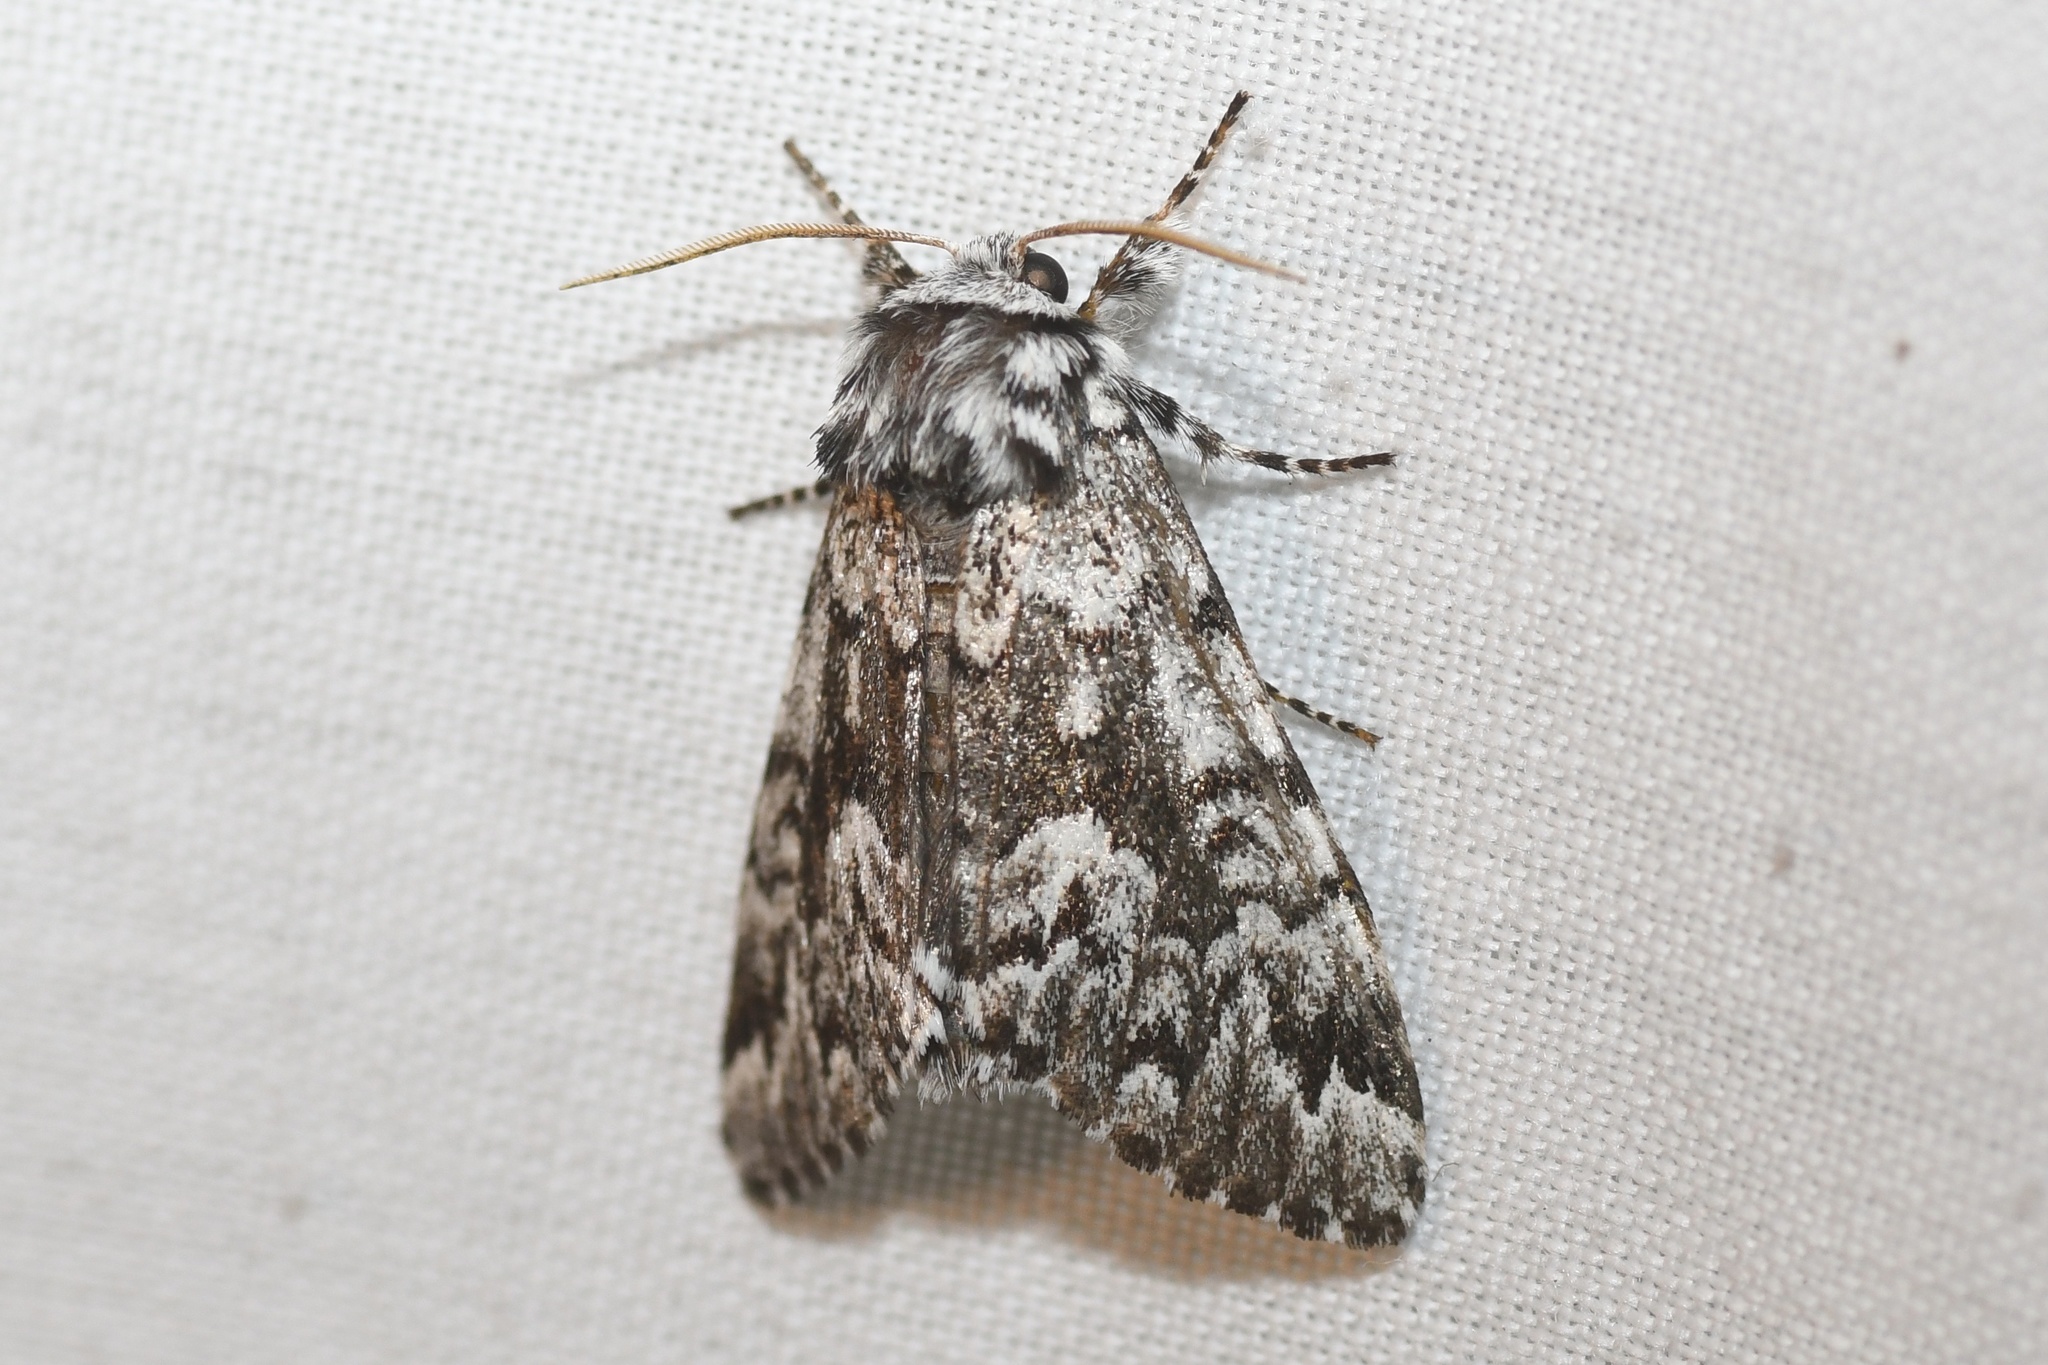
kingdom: Animalia
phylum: Arthropoda
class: Insecta
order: Lepidoptera
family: Noctuidae
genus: Panthea
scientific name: Panthea acronyctoides
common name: Black zigzag moth
